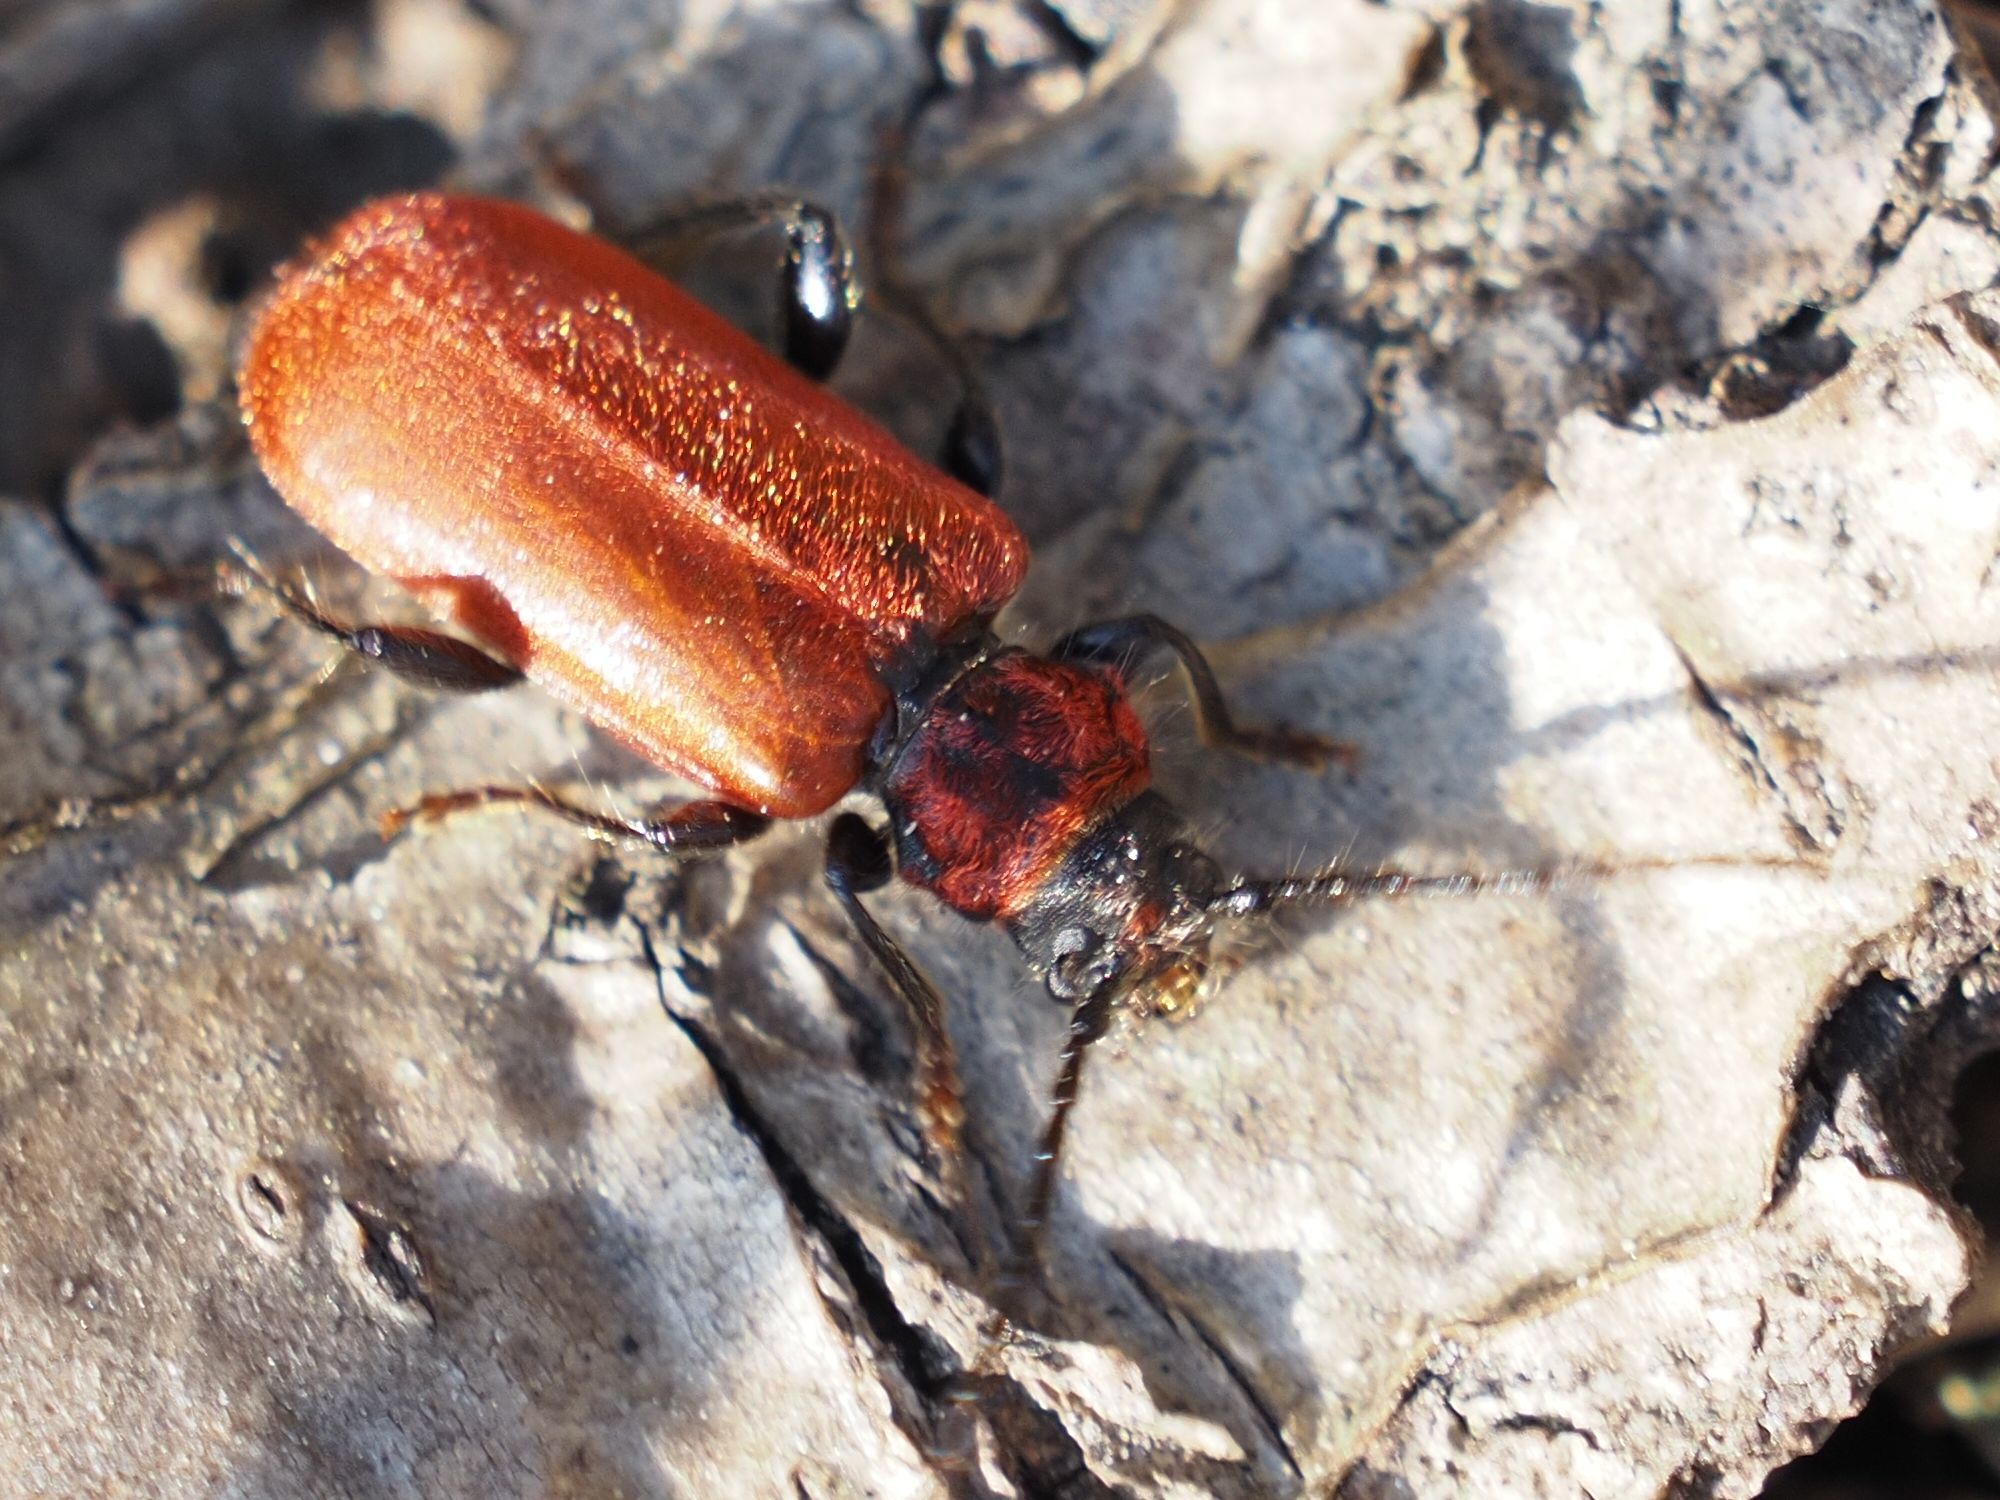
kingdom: Animalia
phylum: Arthropoda
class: Insecta
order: Coleoptera
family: Cerambycidae
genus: Pyrrhidium
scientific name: Pyrrhidium sanguineum
